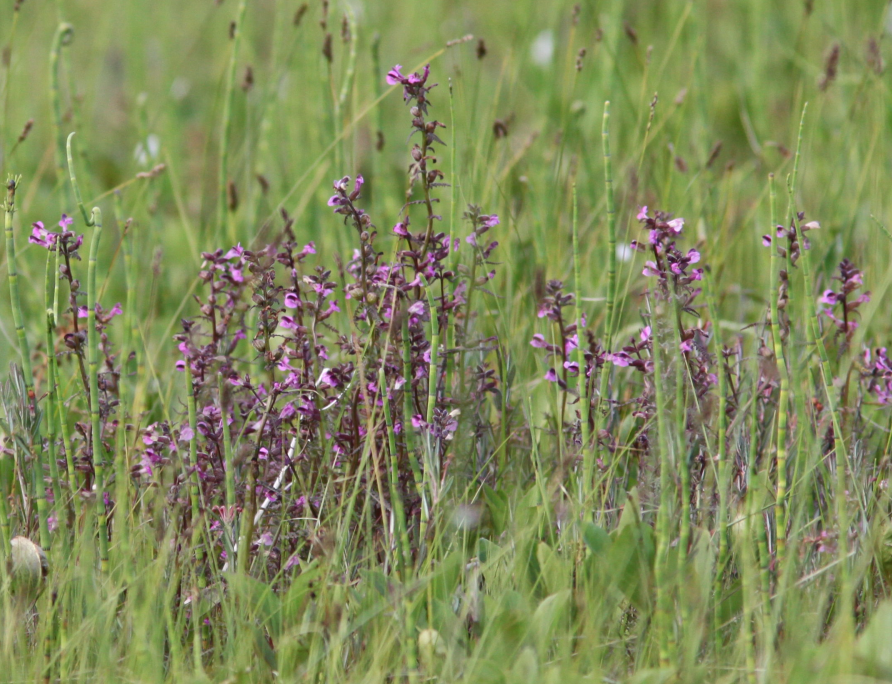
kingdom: Plantae
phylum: Tracheophyta
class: Magnoliopsida
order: Lamiales
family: Orobanchaceae
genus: Pedicularis
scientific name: Pedicularis palustris
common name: Marsh lousewort
